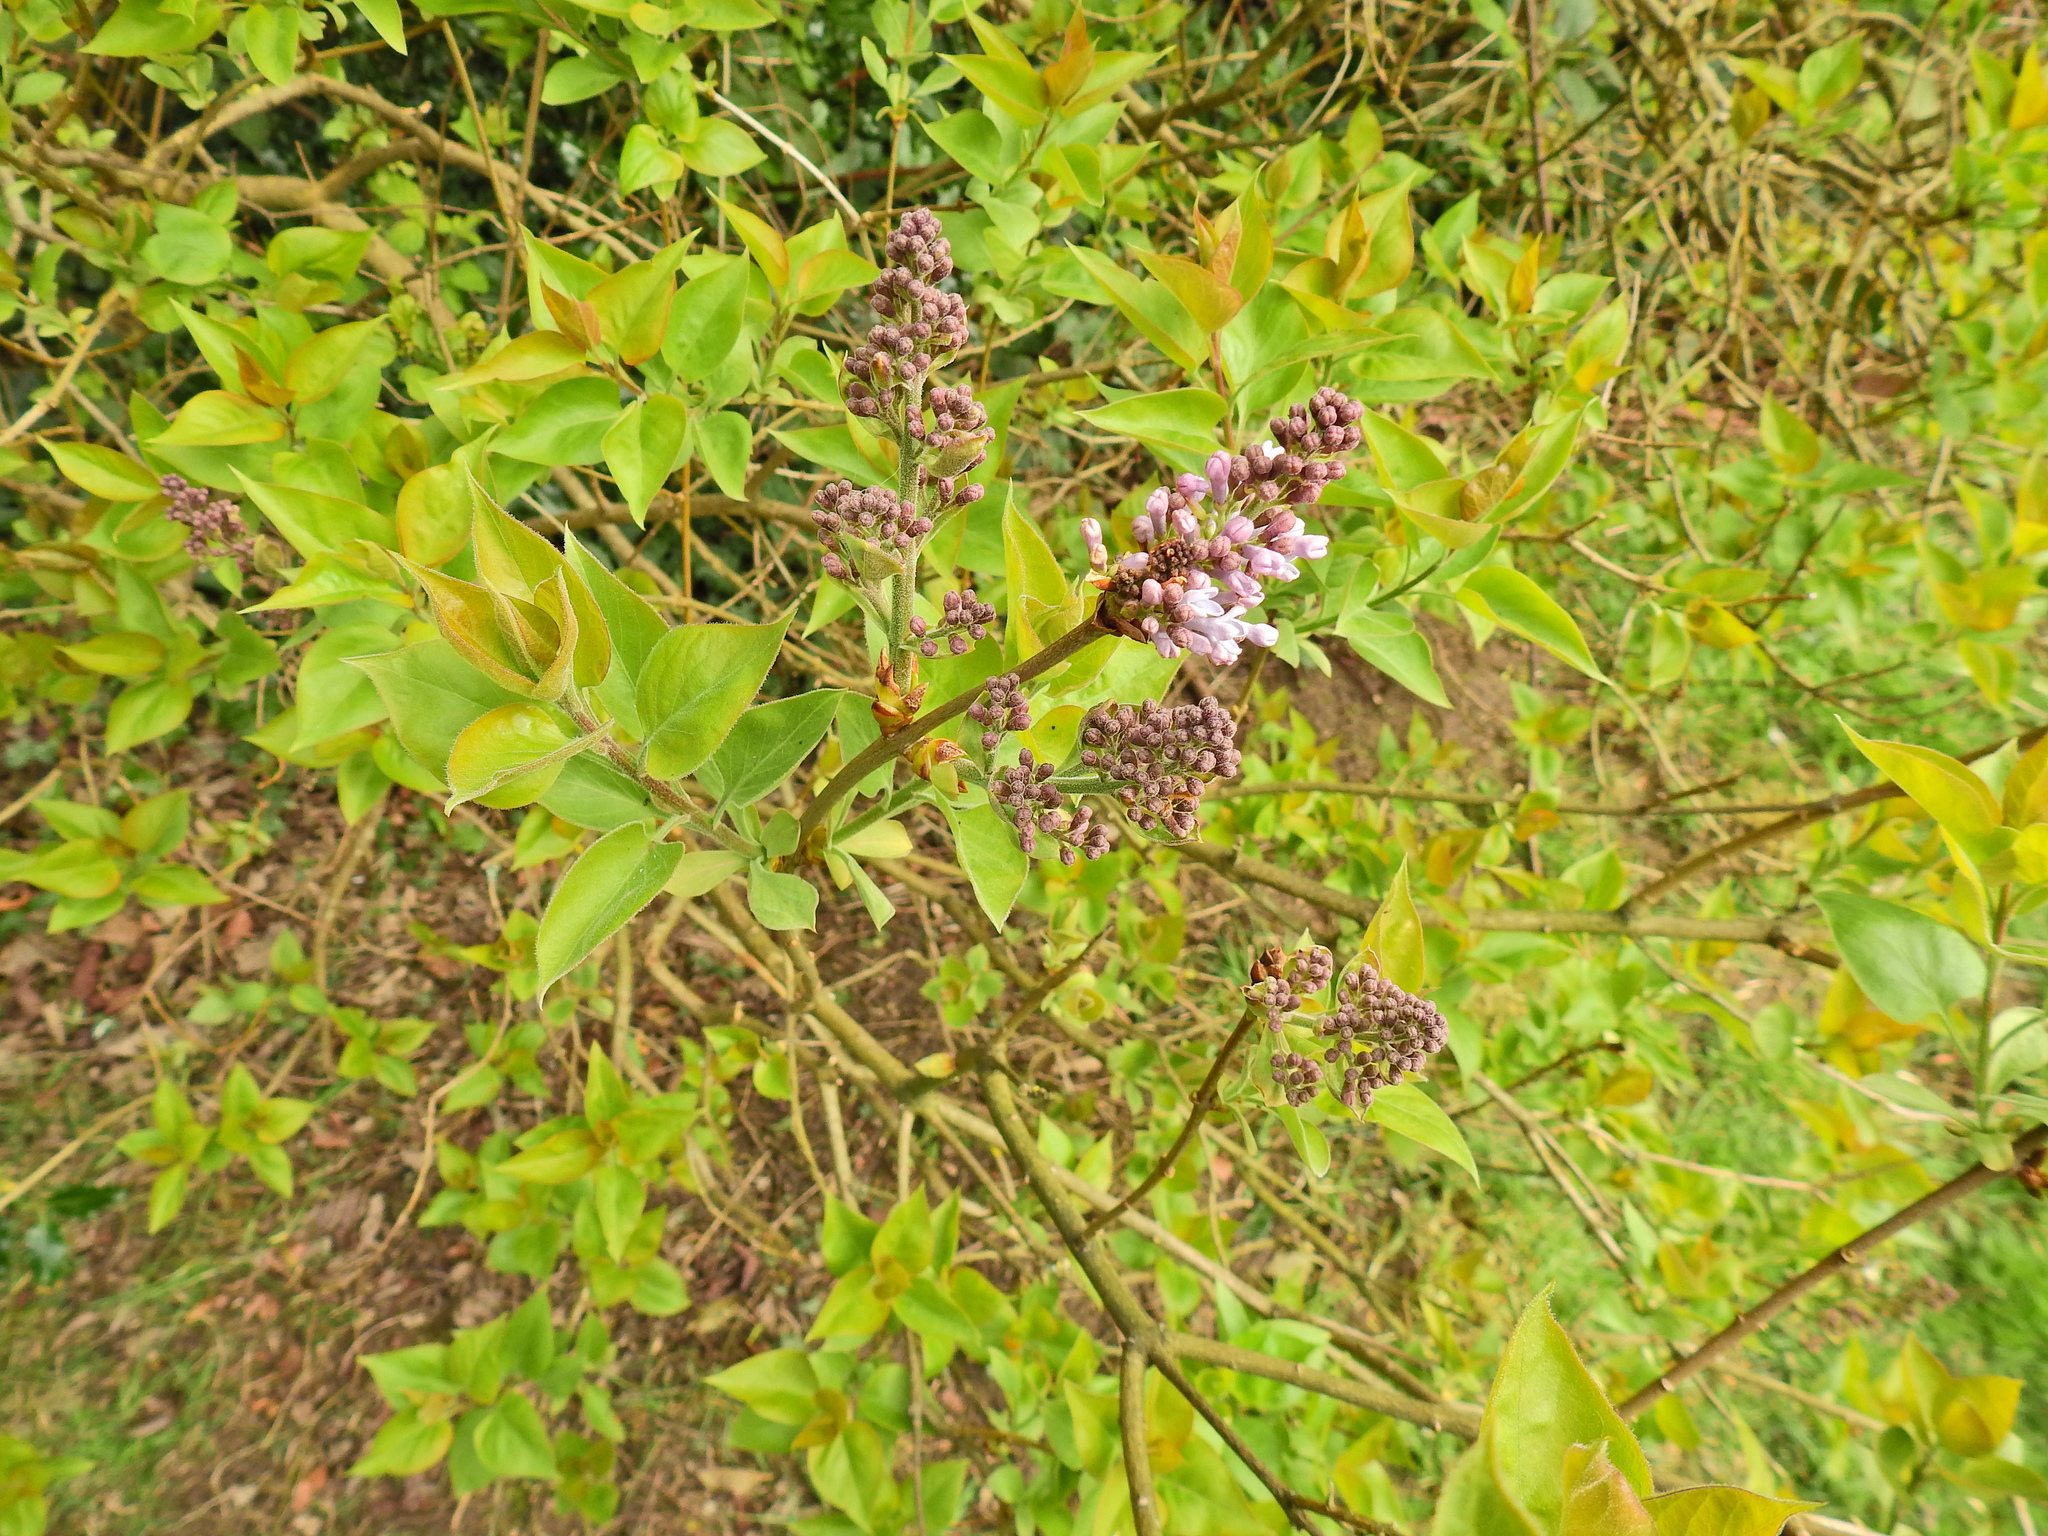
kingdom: Plantae
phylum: Tracheophyta
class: Magnoliopsida
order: Lamiales
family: Oleaceae
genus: Syringa
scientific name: Syringa vulgaris
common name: Common lilac
